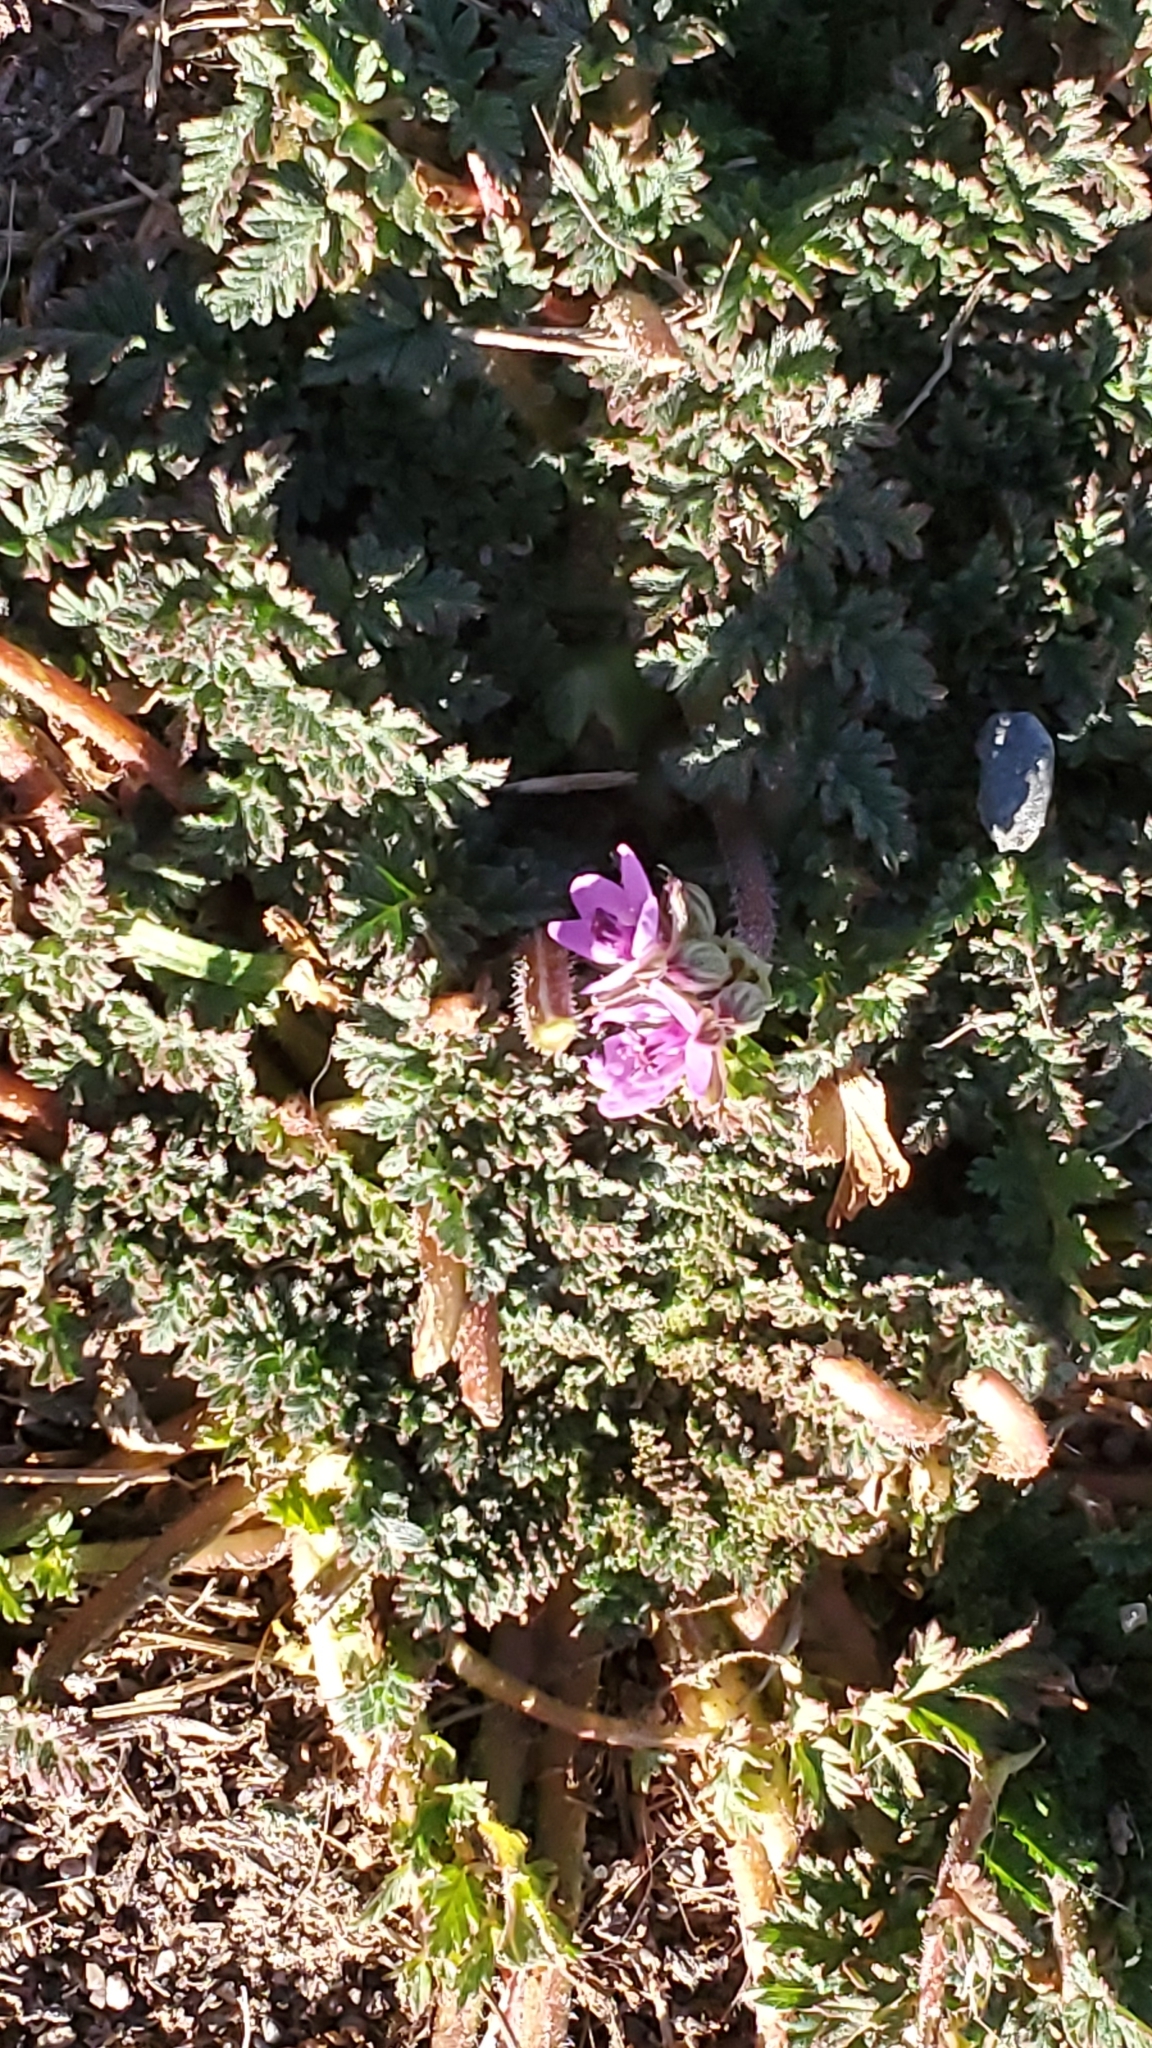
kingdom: Plantae
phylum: Tracheophyta
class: Magnoliopsida
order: Geraniales
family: Geraniaceae
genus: Erodium
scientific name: Erodium cicutarium
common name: Common stork's-bill
